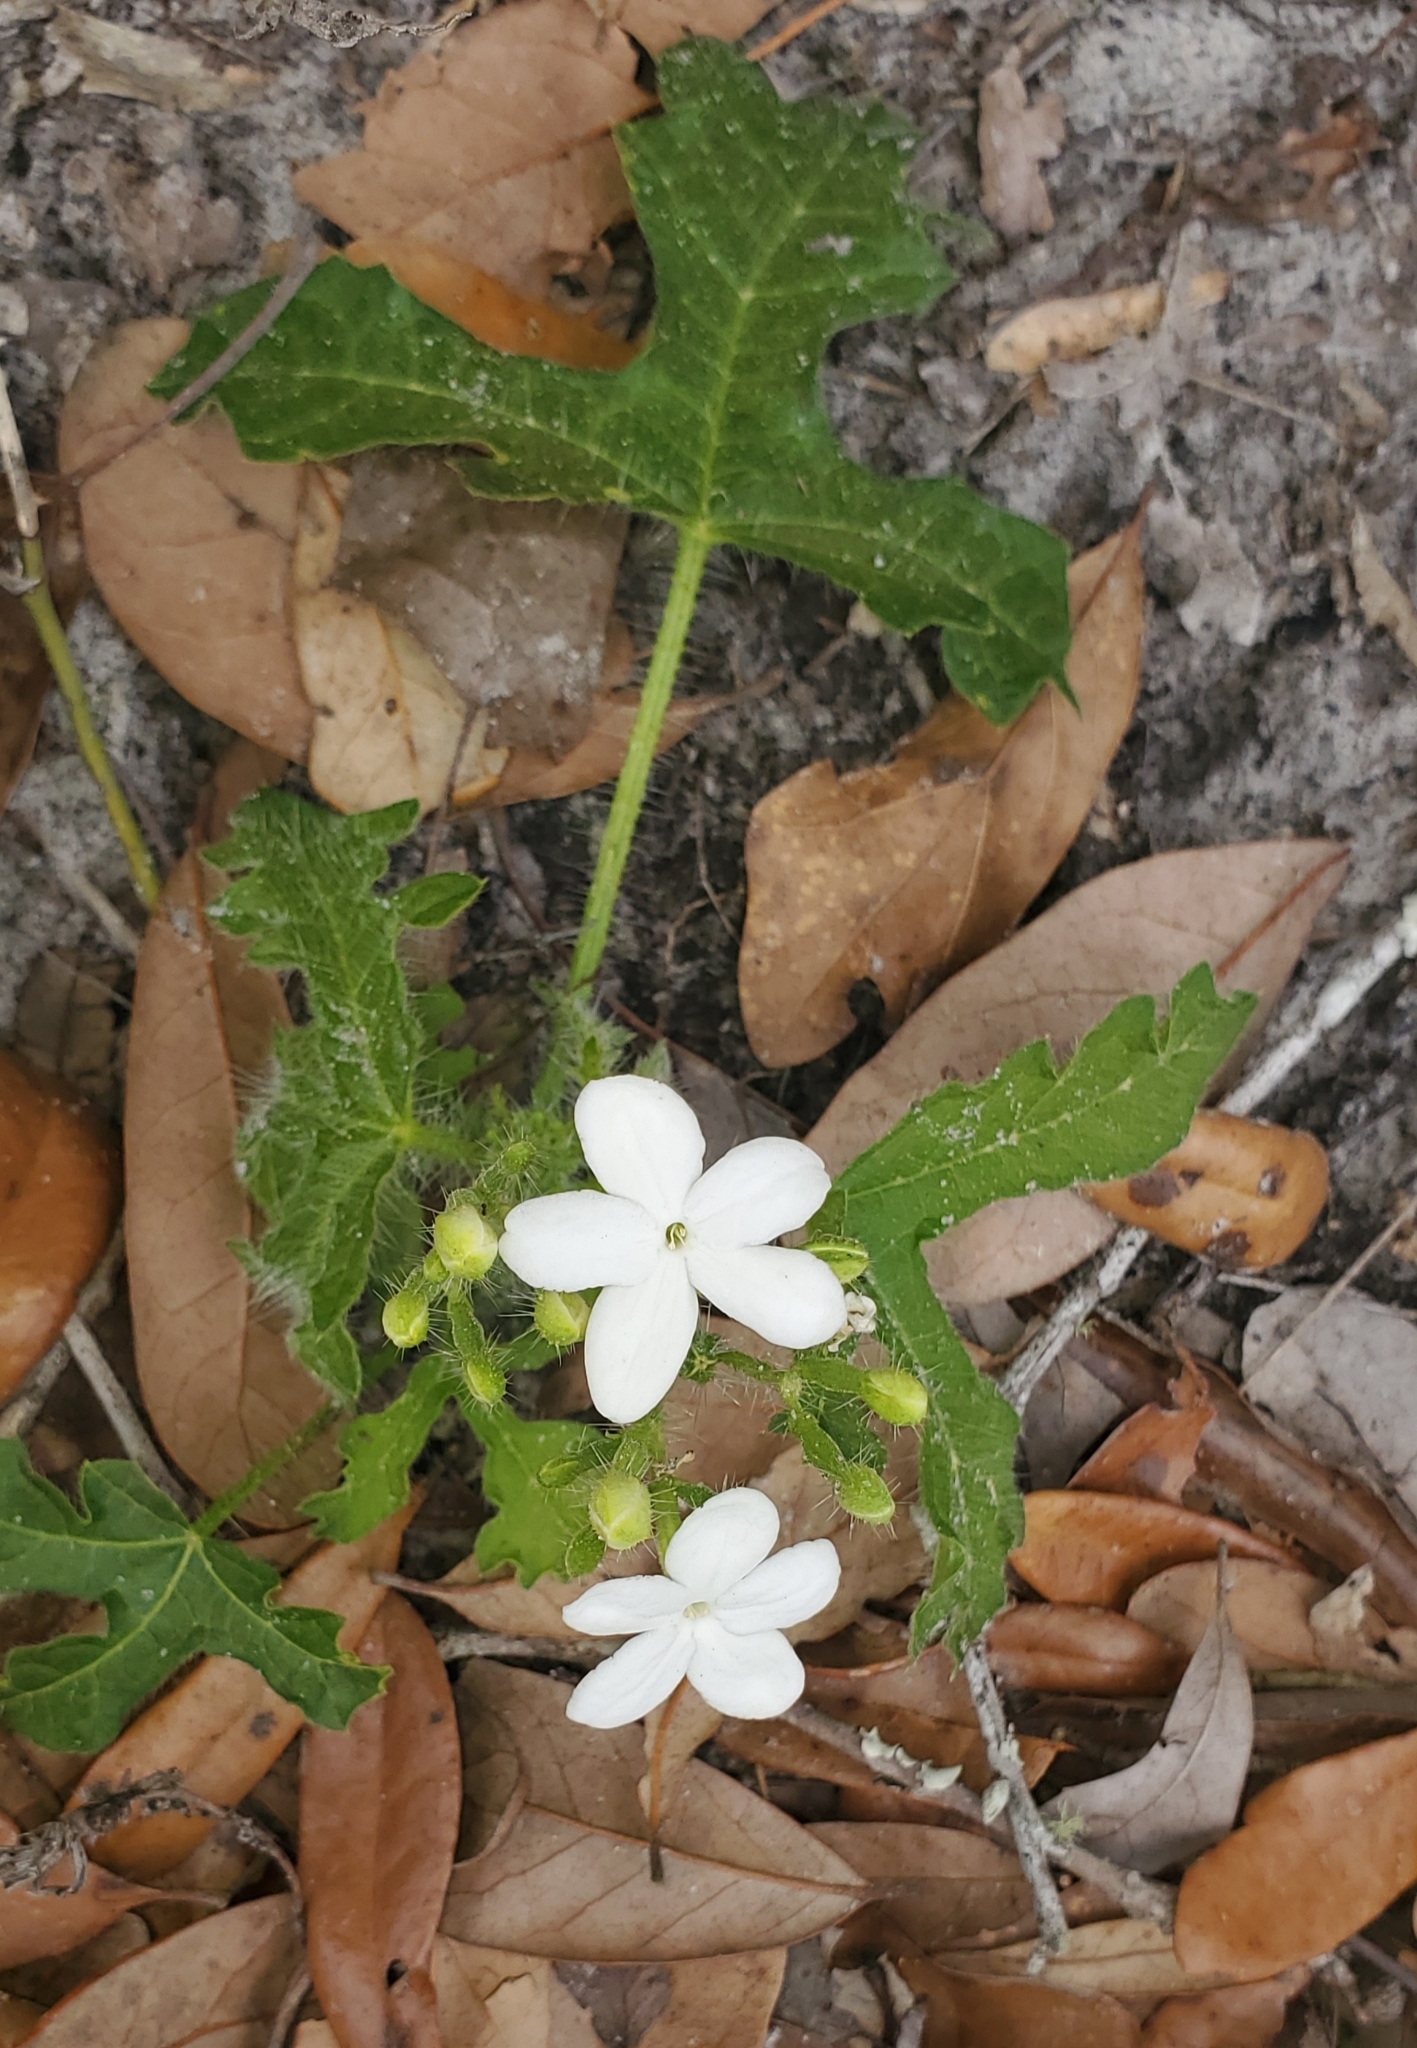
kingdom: Plantae
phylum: Tracheophyta
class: Magnoliopsida
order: Malpighiales
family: Euphorbiaceae
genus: Cnidoscolus
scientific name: Cnidoscolus stimulosus
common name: Bull-nettle
